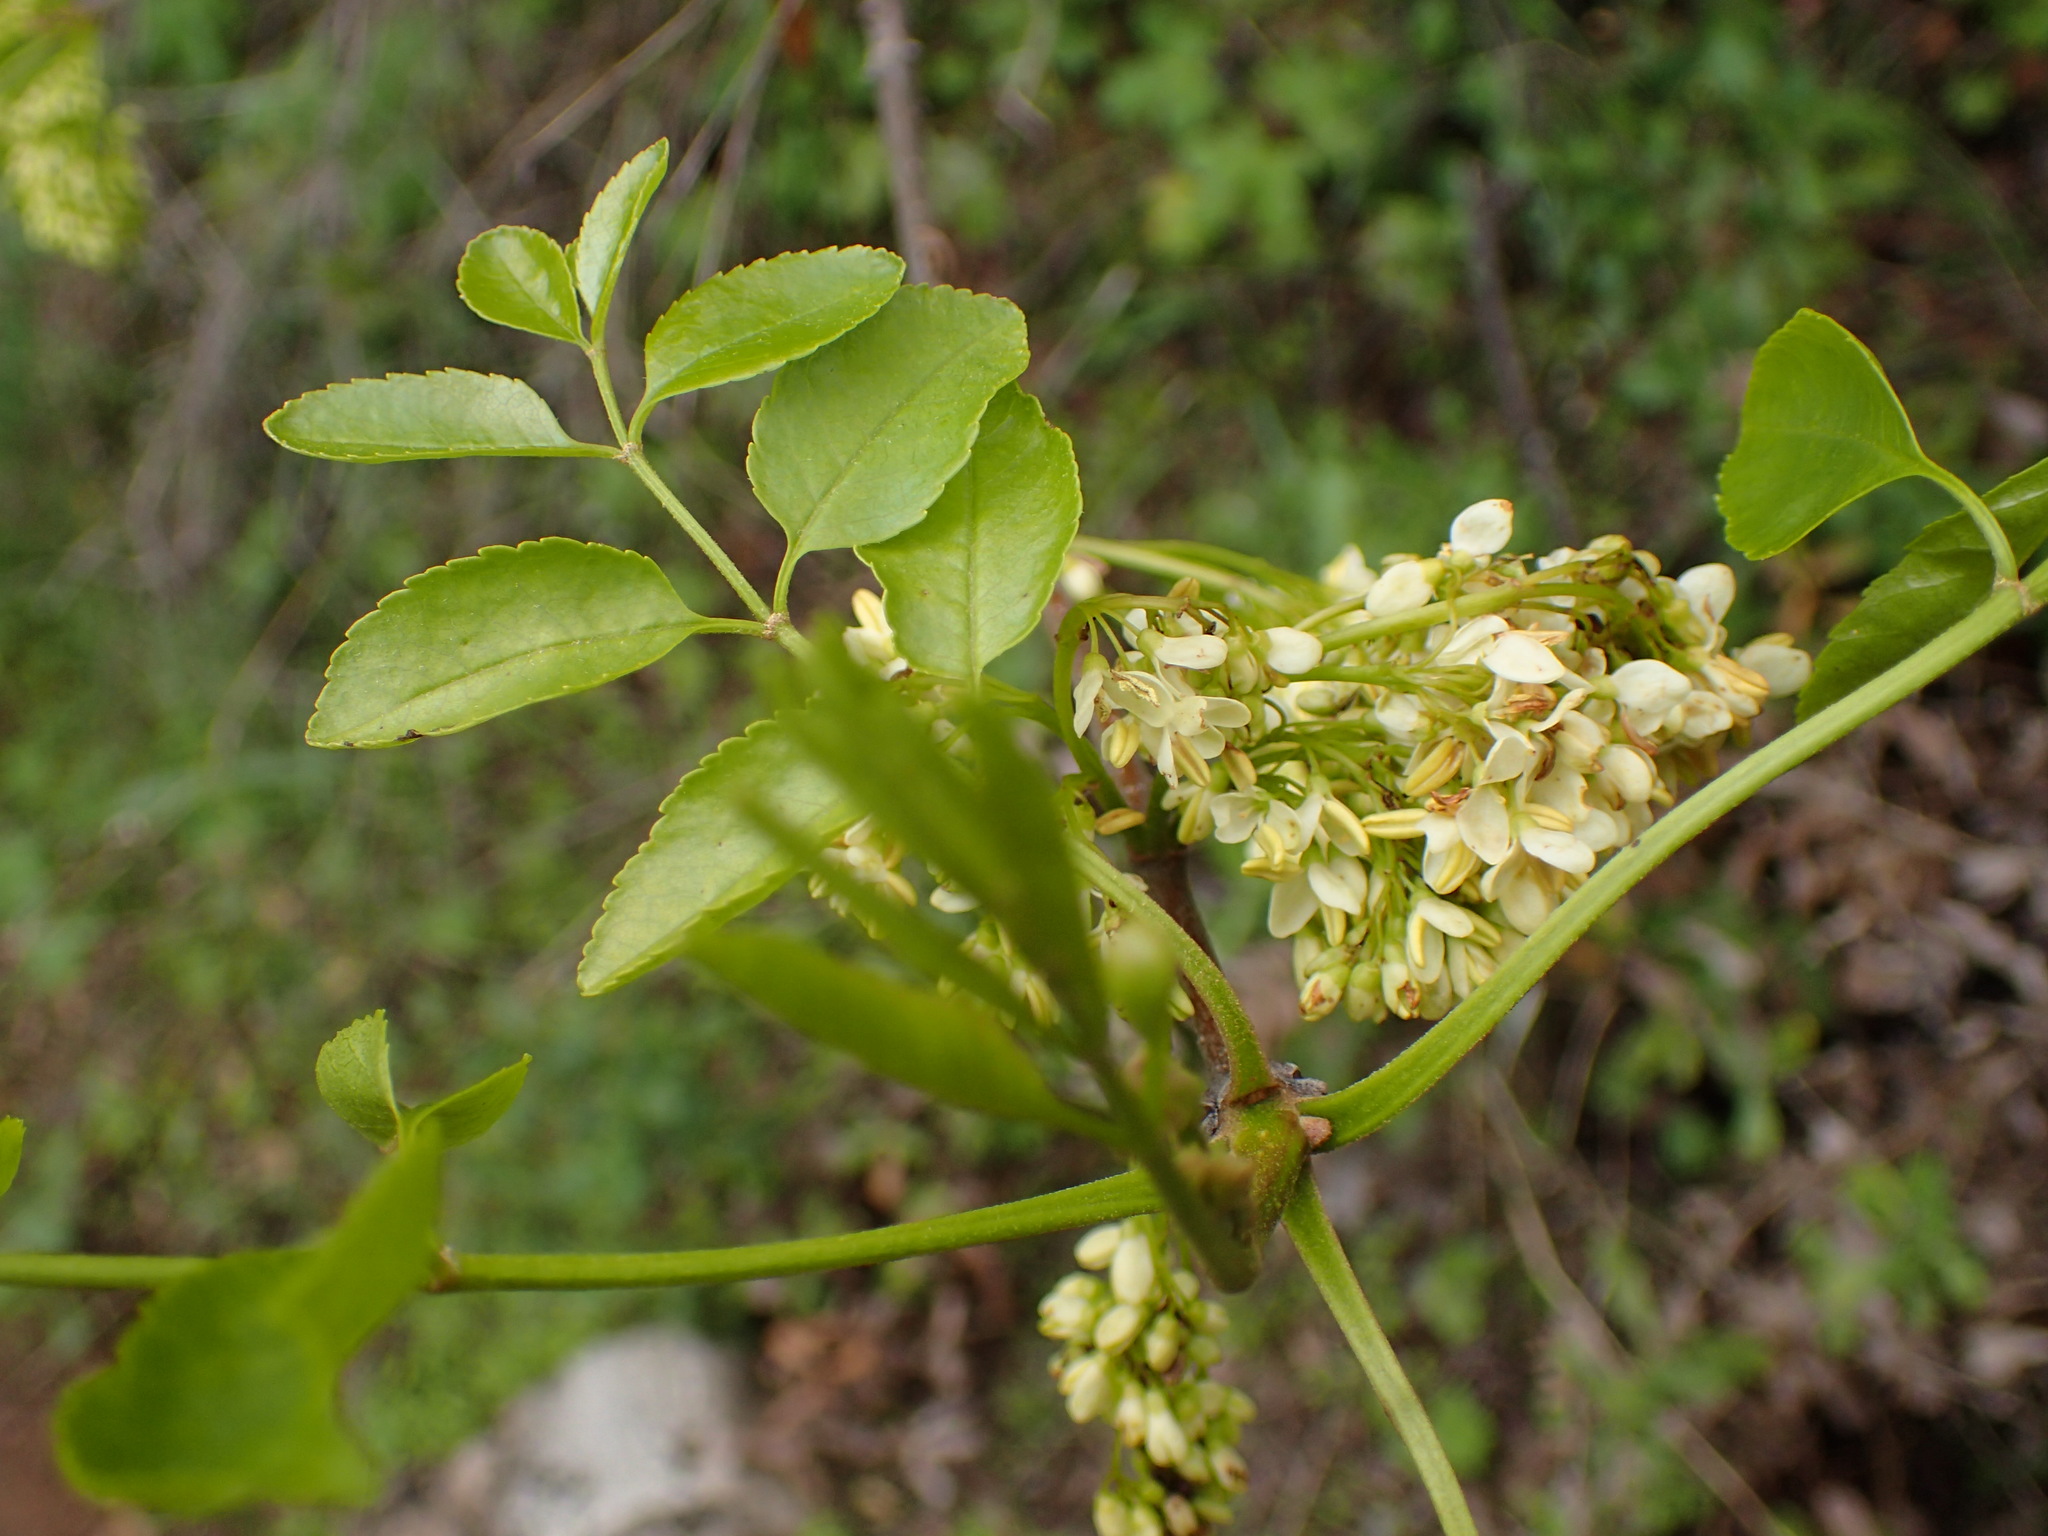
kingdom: Plantae
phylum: Tracheophyta
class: Magnoliopsida
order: Lamiales
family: Oleaceae
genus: Fraxinus
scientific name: Fraxinus dipetala
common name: California ash
